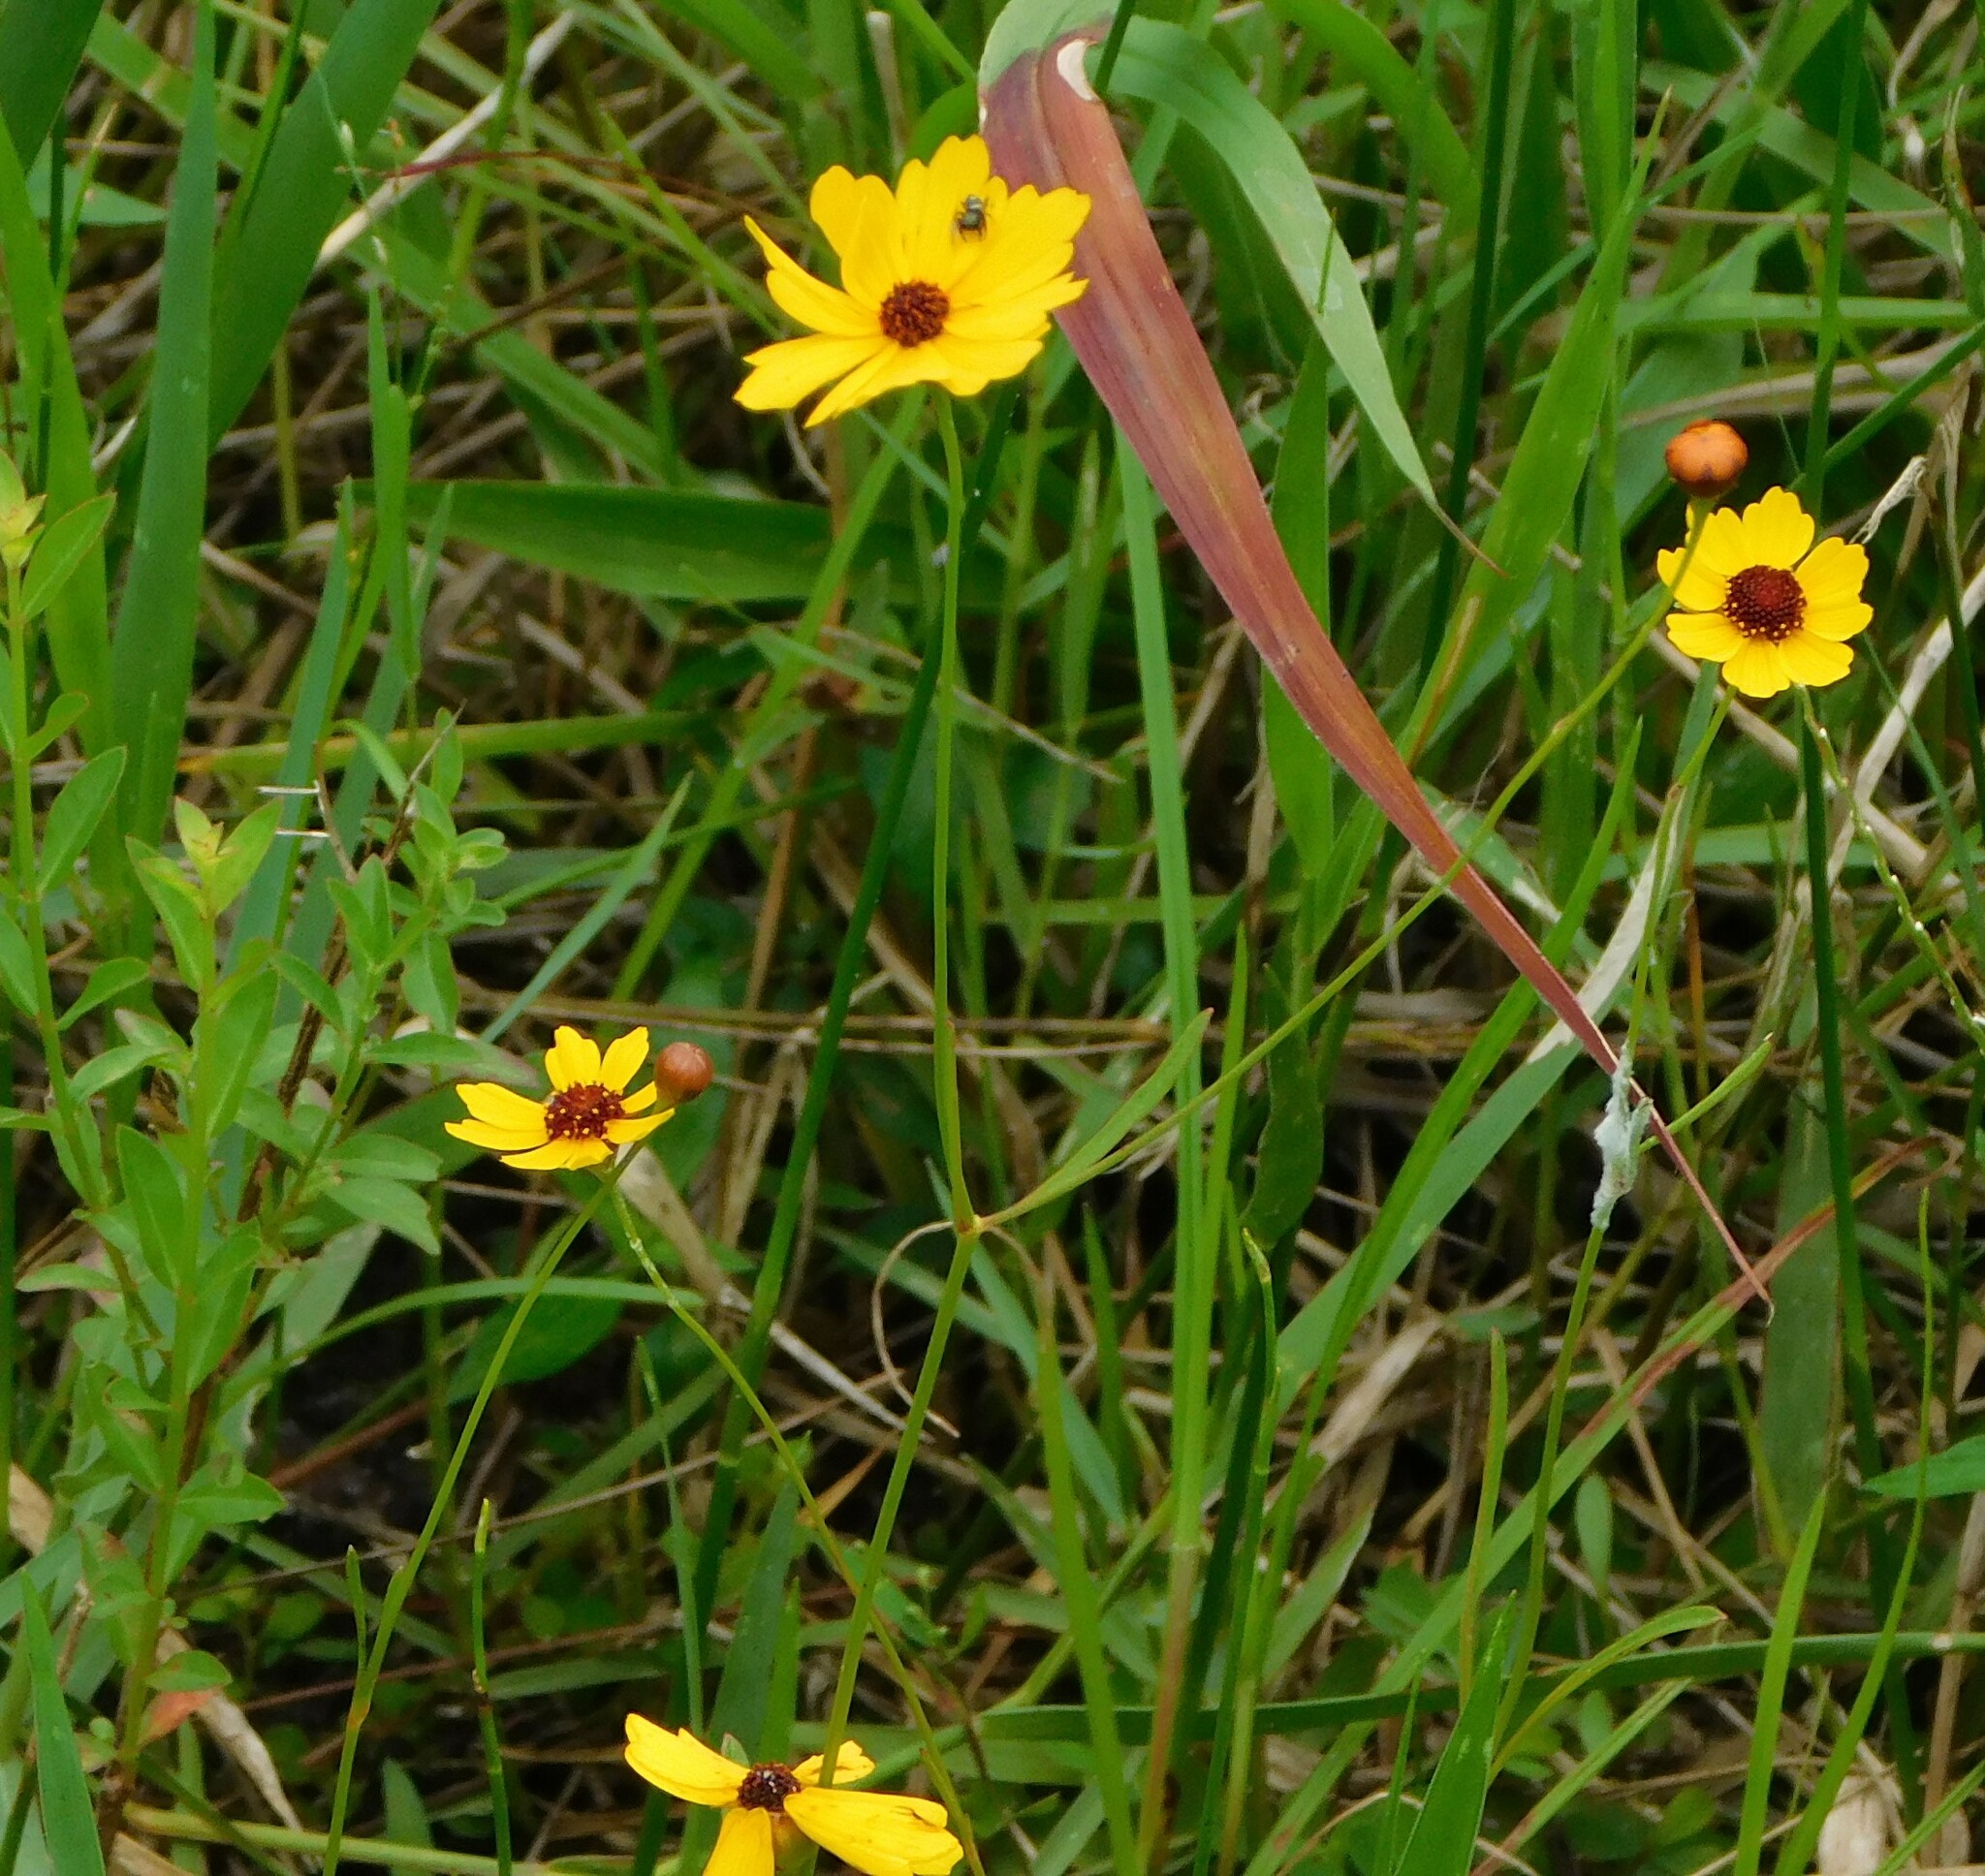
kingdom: Plantae
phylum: Tracheophyta
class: Magnoliopsida
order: Asterales
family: Asteraceae
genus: Coreopsis
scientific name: Coreopsis leavenworthii
